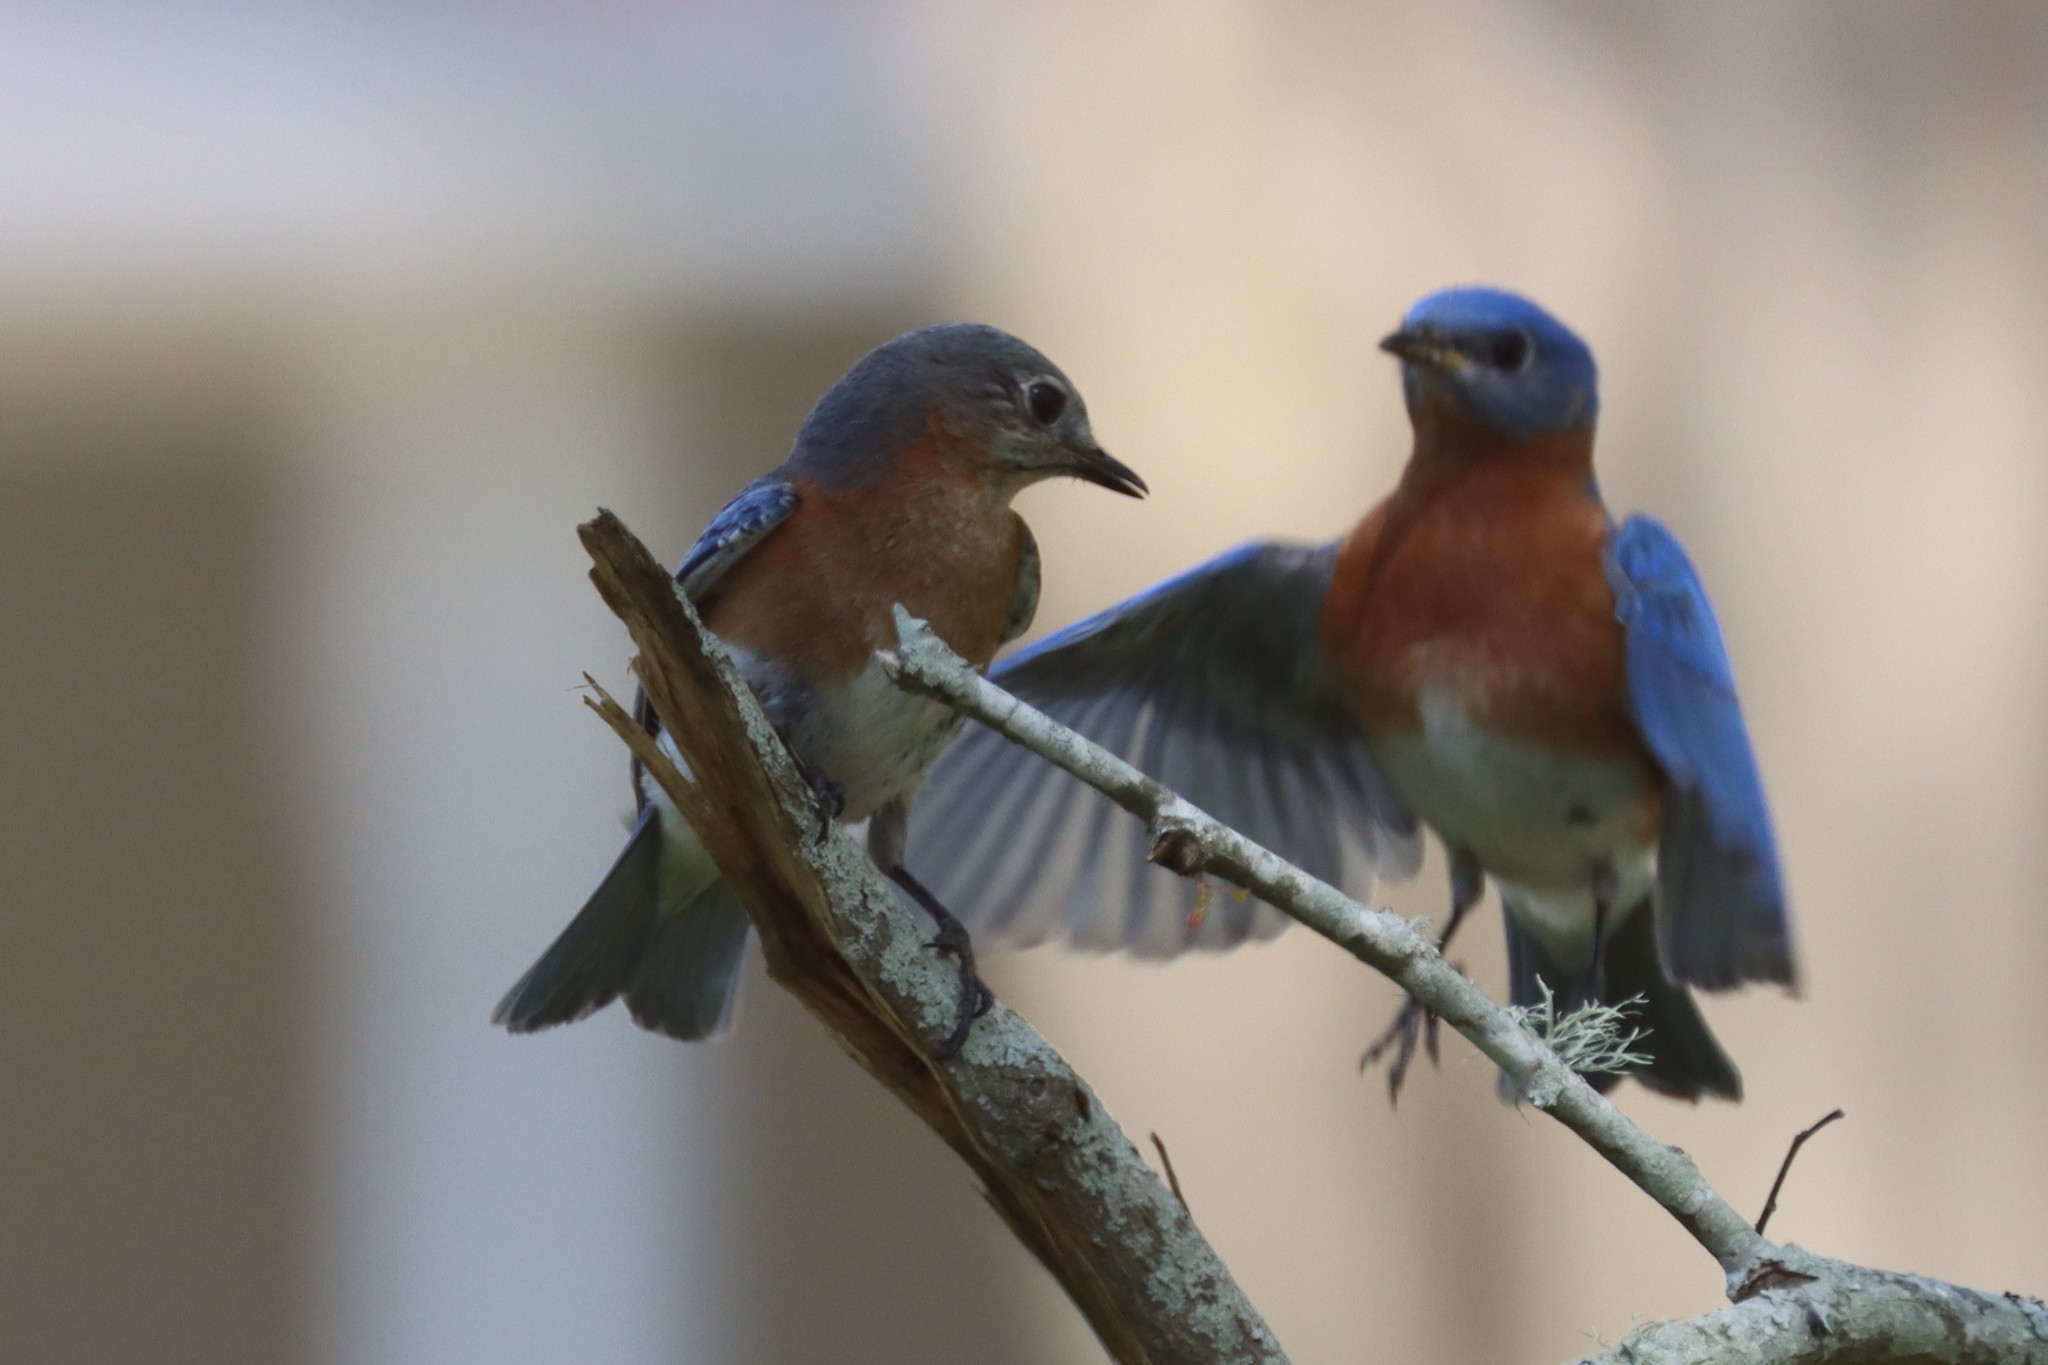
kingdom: Animalia
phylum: Chordata
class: Aves
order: Passeriformes
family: Turdidae
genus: Sialia
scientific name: Sialia sialis
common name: Eastern bluebird
